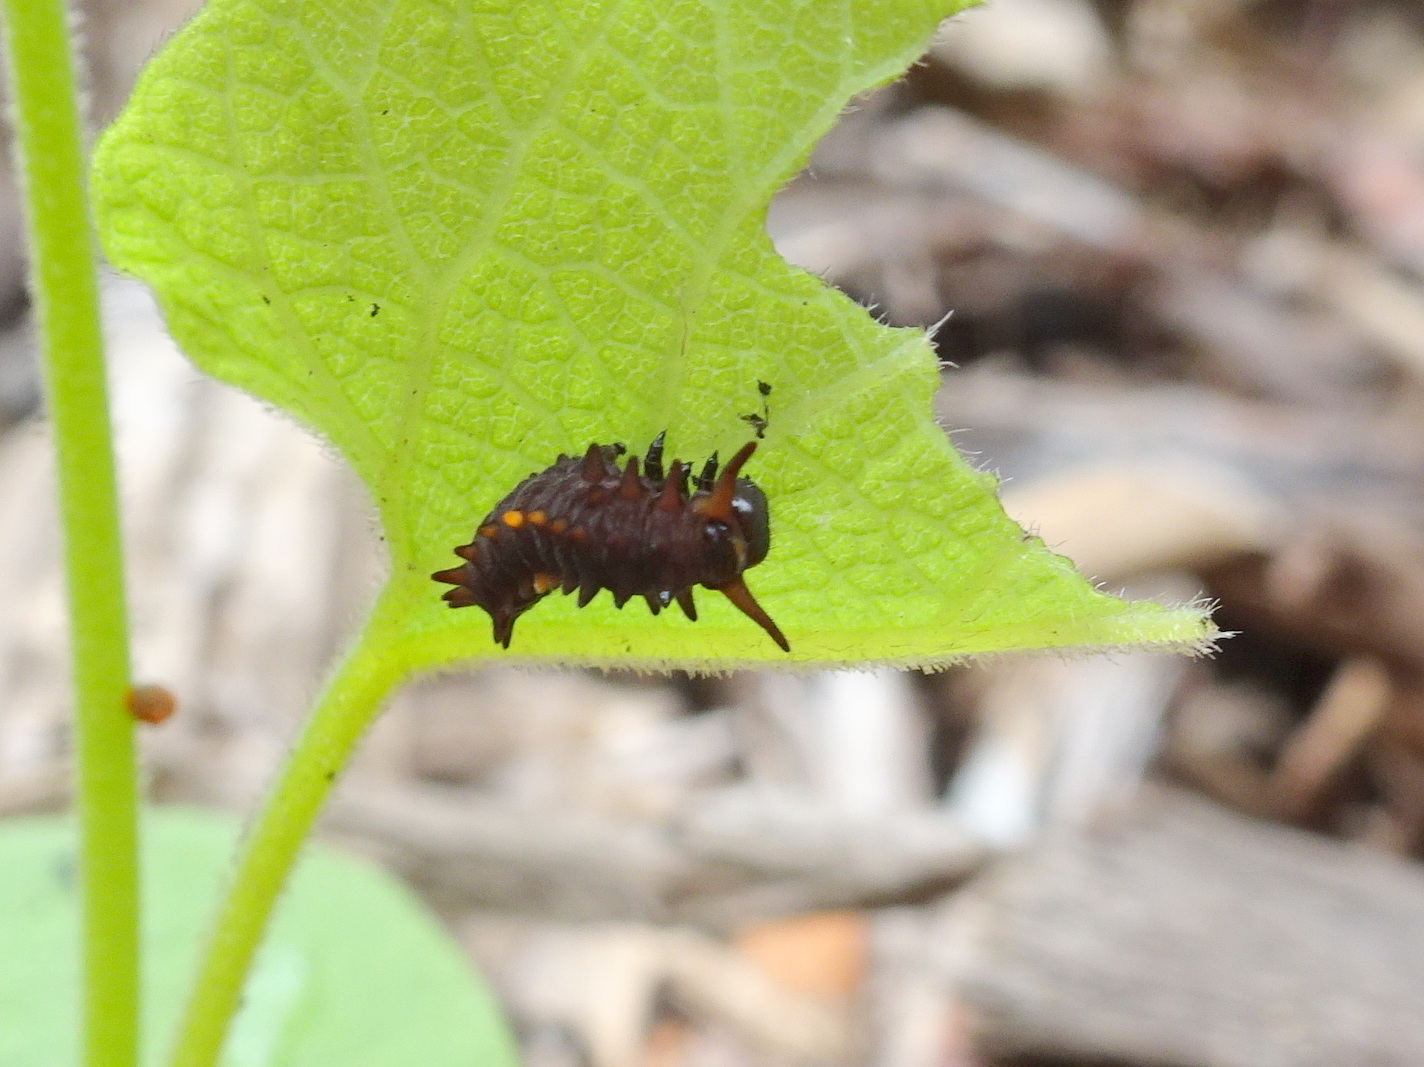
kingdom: Animalia
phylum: Arthropoda
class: Insecta
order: Lepidoptera
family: Papilionidae
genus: Battus
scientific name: Battus philenor
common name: Pipevine swallowtail
